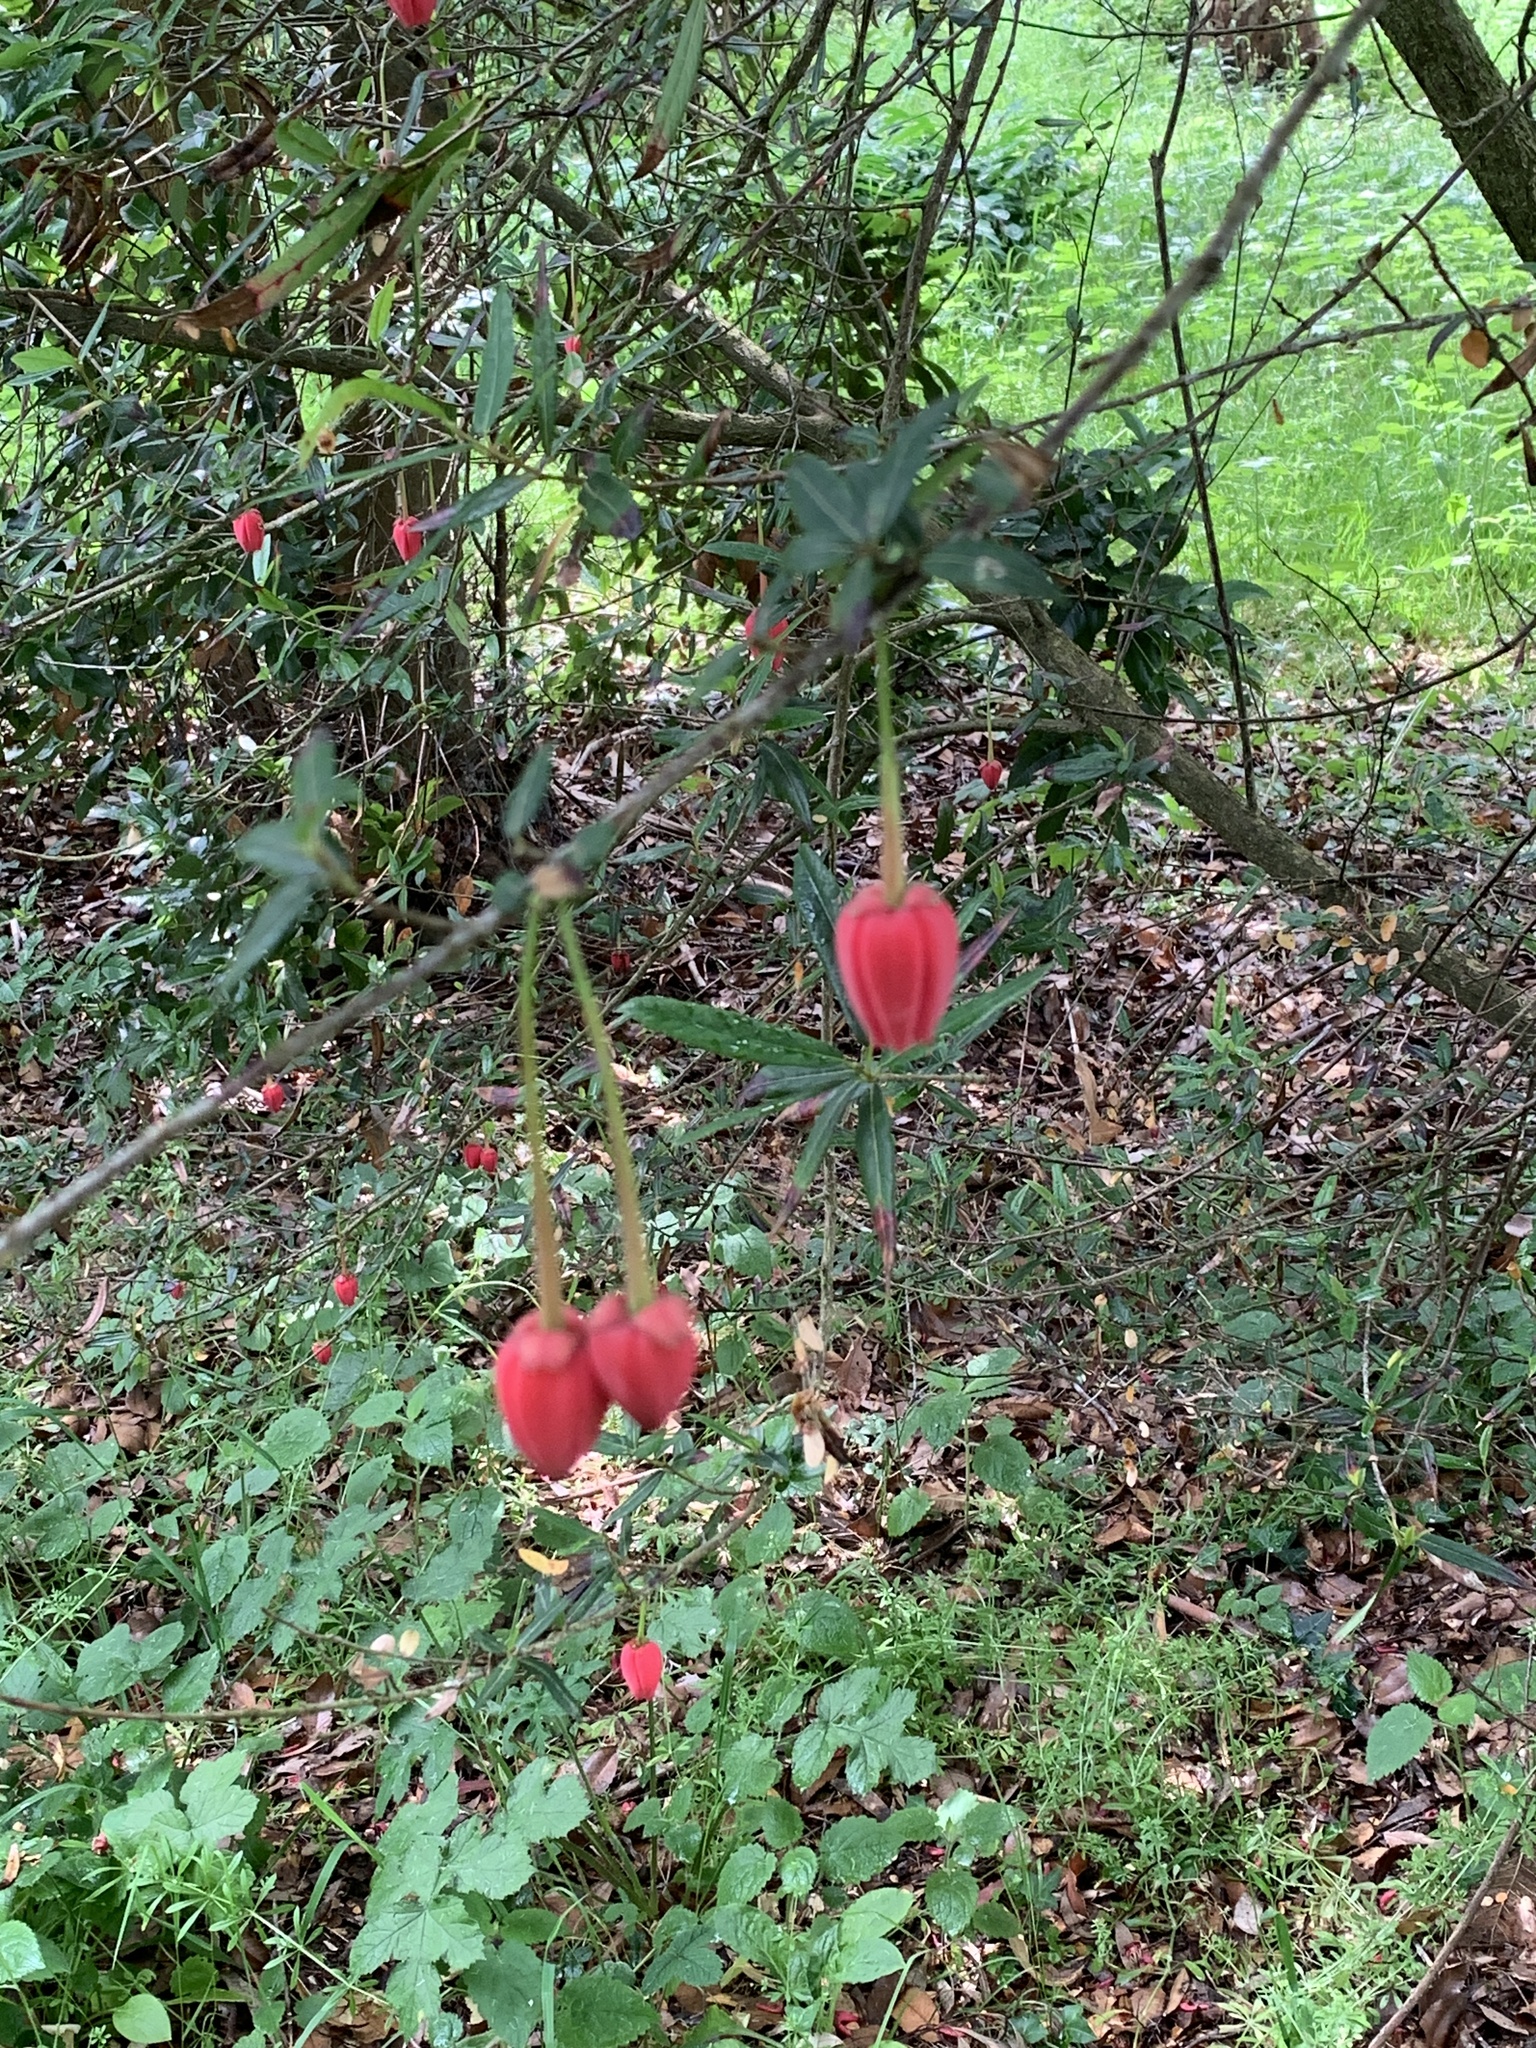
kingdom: Plantae
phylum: Tracheophyta
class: Magnoliopsida
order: Oxalidales
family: Elaeocarpaceae
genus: Crinodendron
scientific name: Crinodendron hookerianum
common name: Lanterntree
